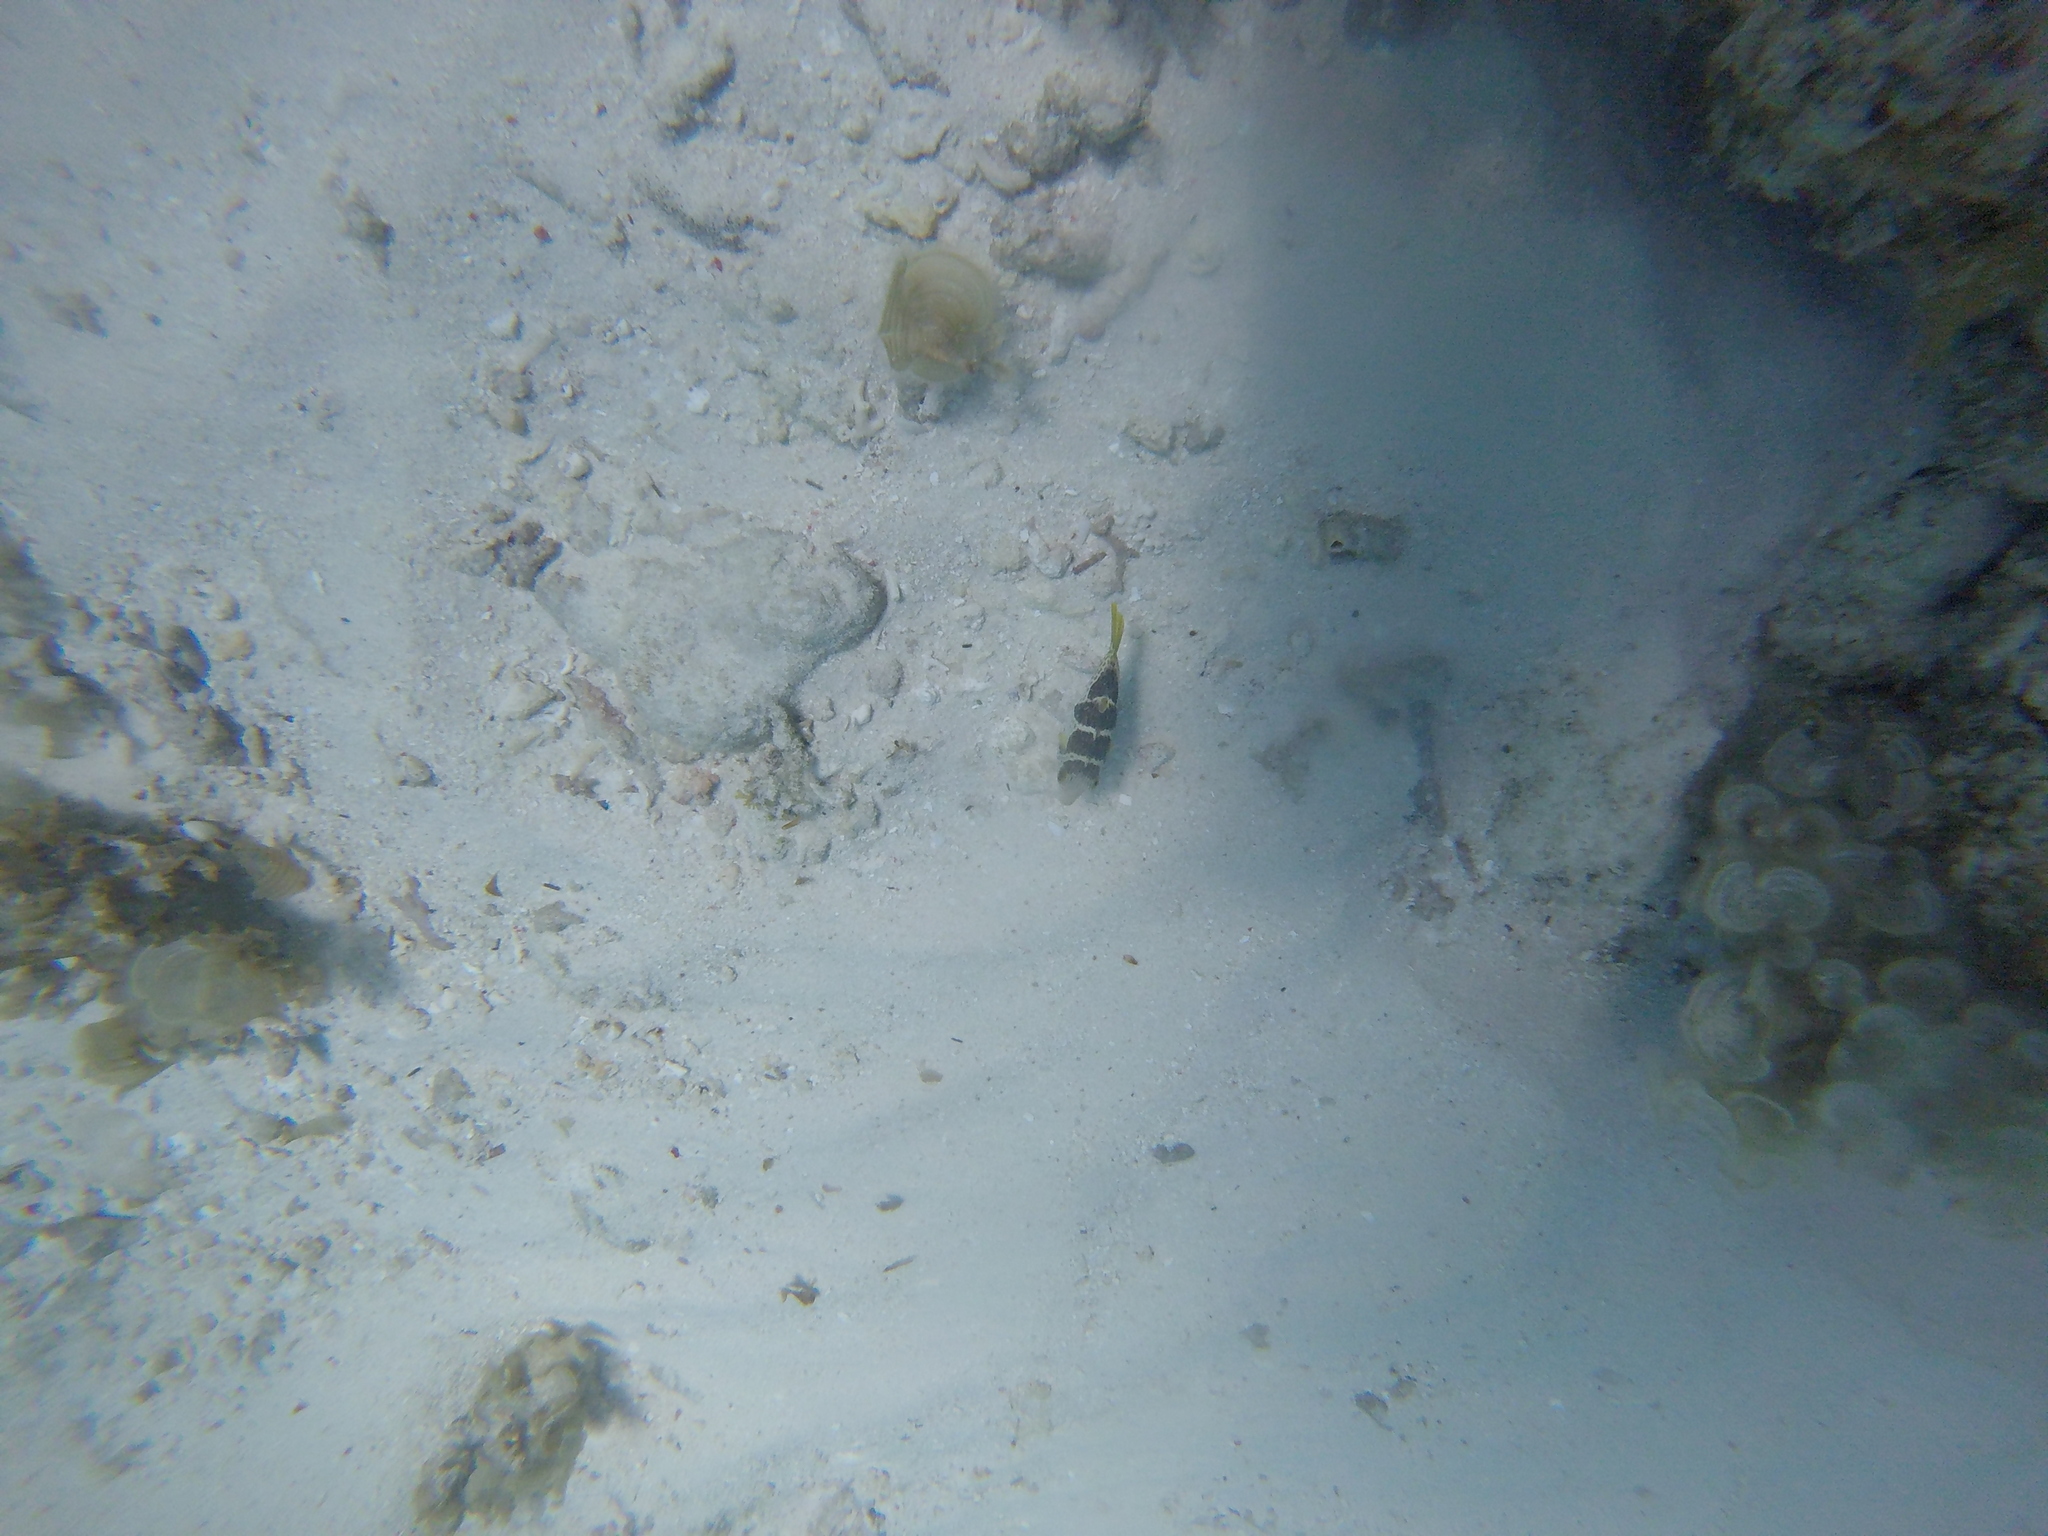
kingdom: Animalia
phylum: Chordata
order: Tetraodontiformes
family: Tetraodontidae
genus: Canthigaster
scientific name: Canthigaster valentini
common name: Banded toby
